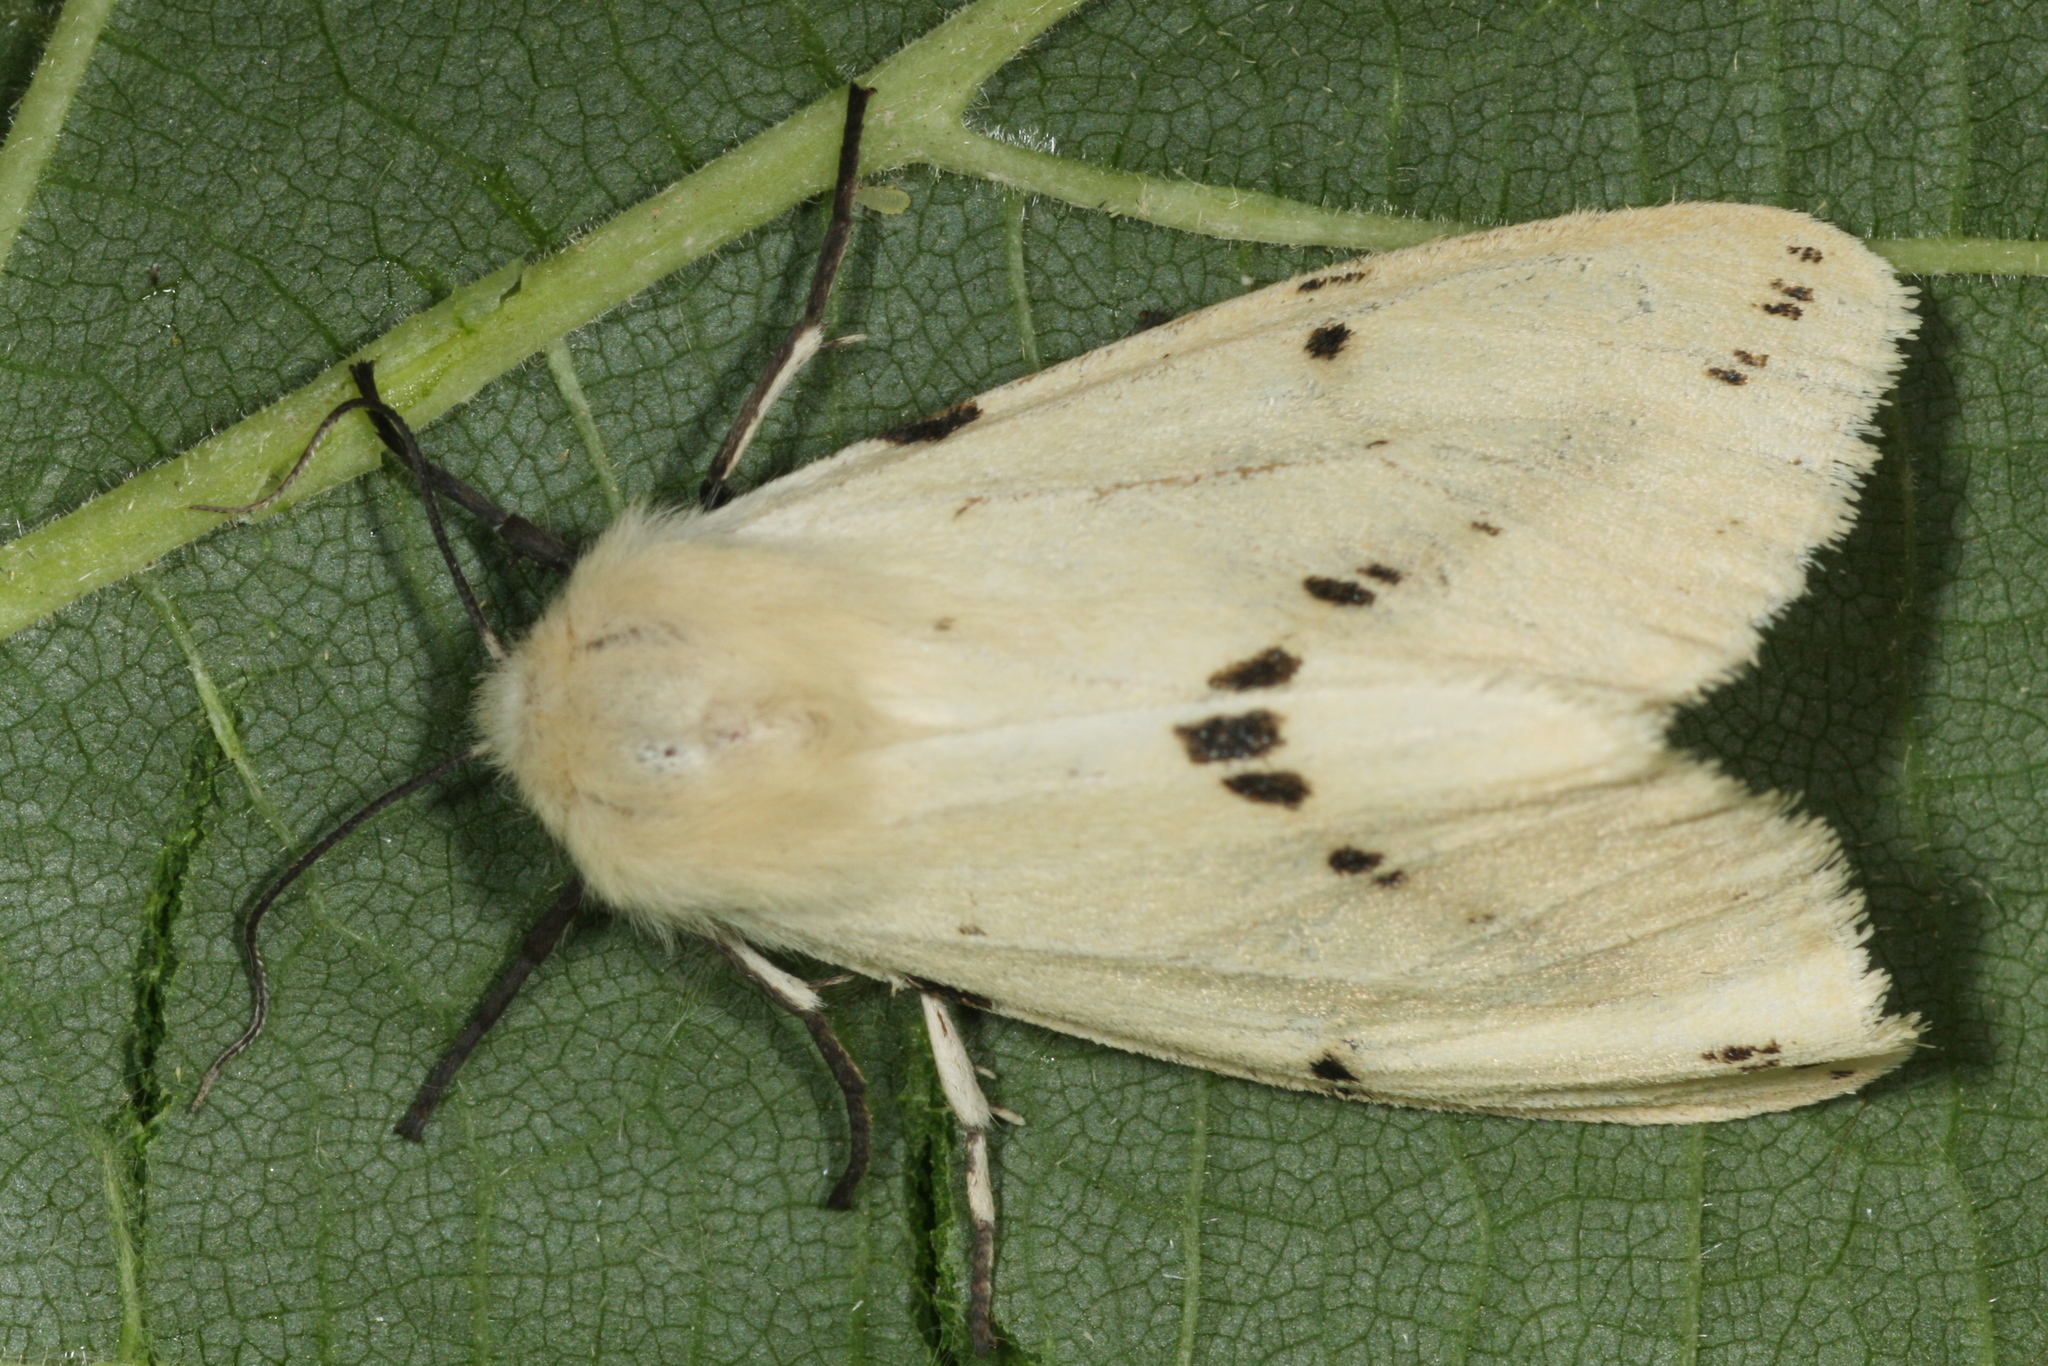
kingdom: Animalia
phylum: Arthropoda
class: Insecta
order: Lepidoptera
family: Erebidae
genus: Spilarctia
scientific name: Spilarctia lutea
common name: Buff ermine
